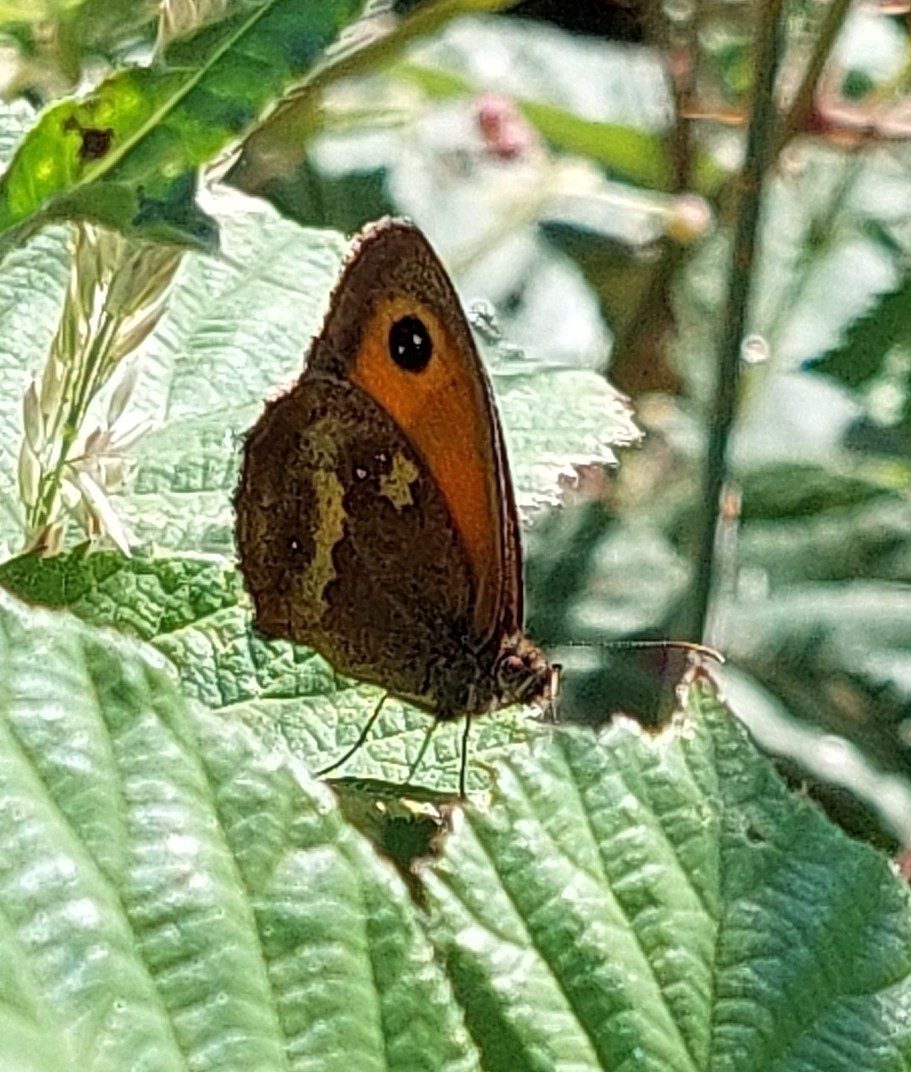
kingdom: Animalia
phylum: Arthropoda
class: Insecta
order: Lepidoptera
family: Nymphalidae
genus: Pyronia
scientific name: Pyronia tithonus
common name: Gatekeeper
